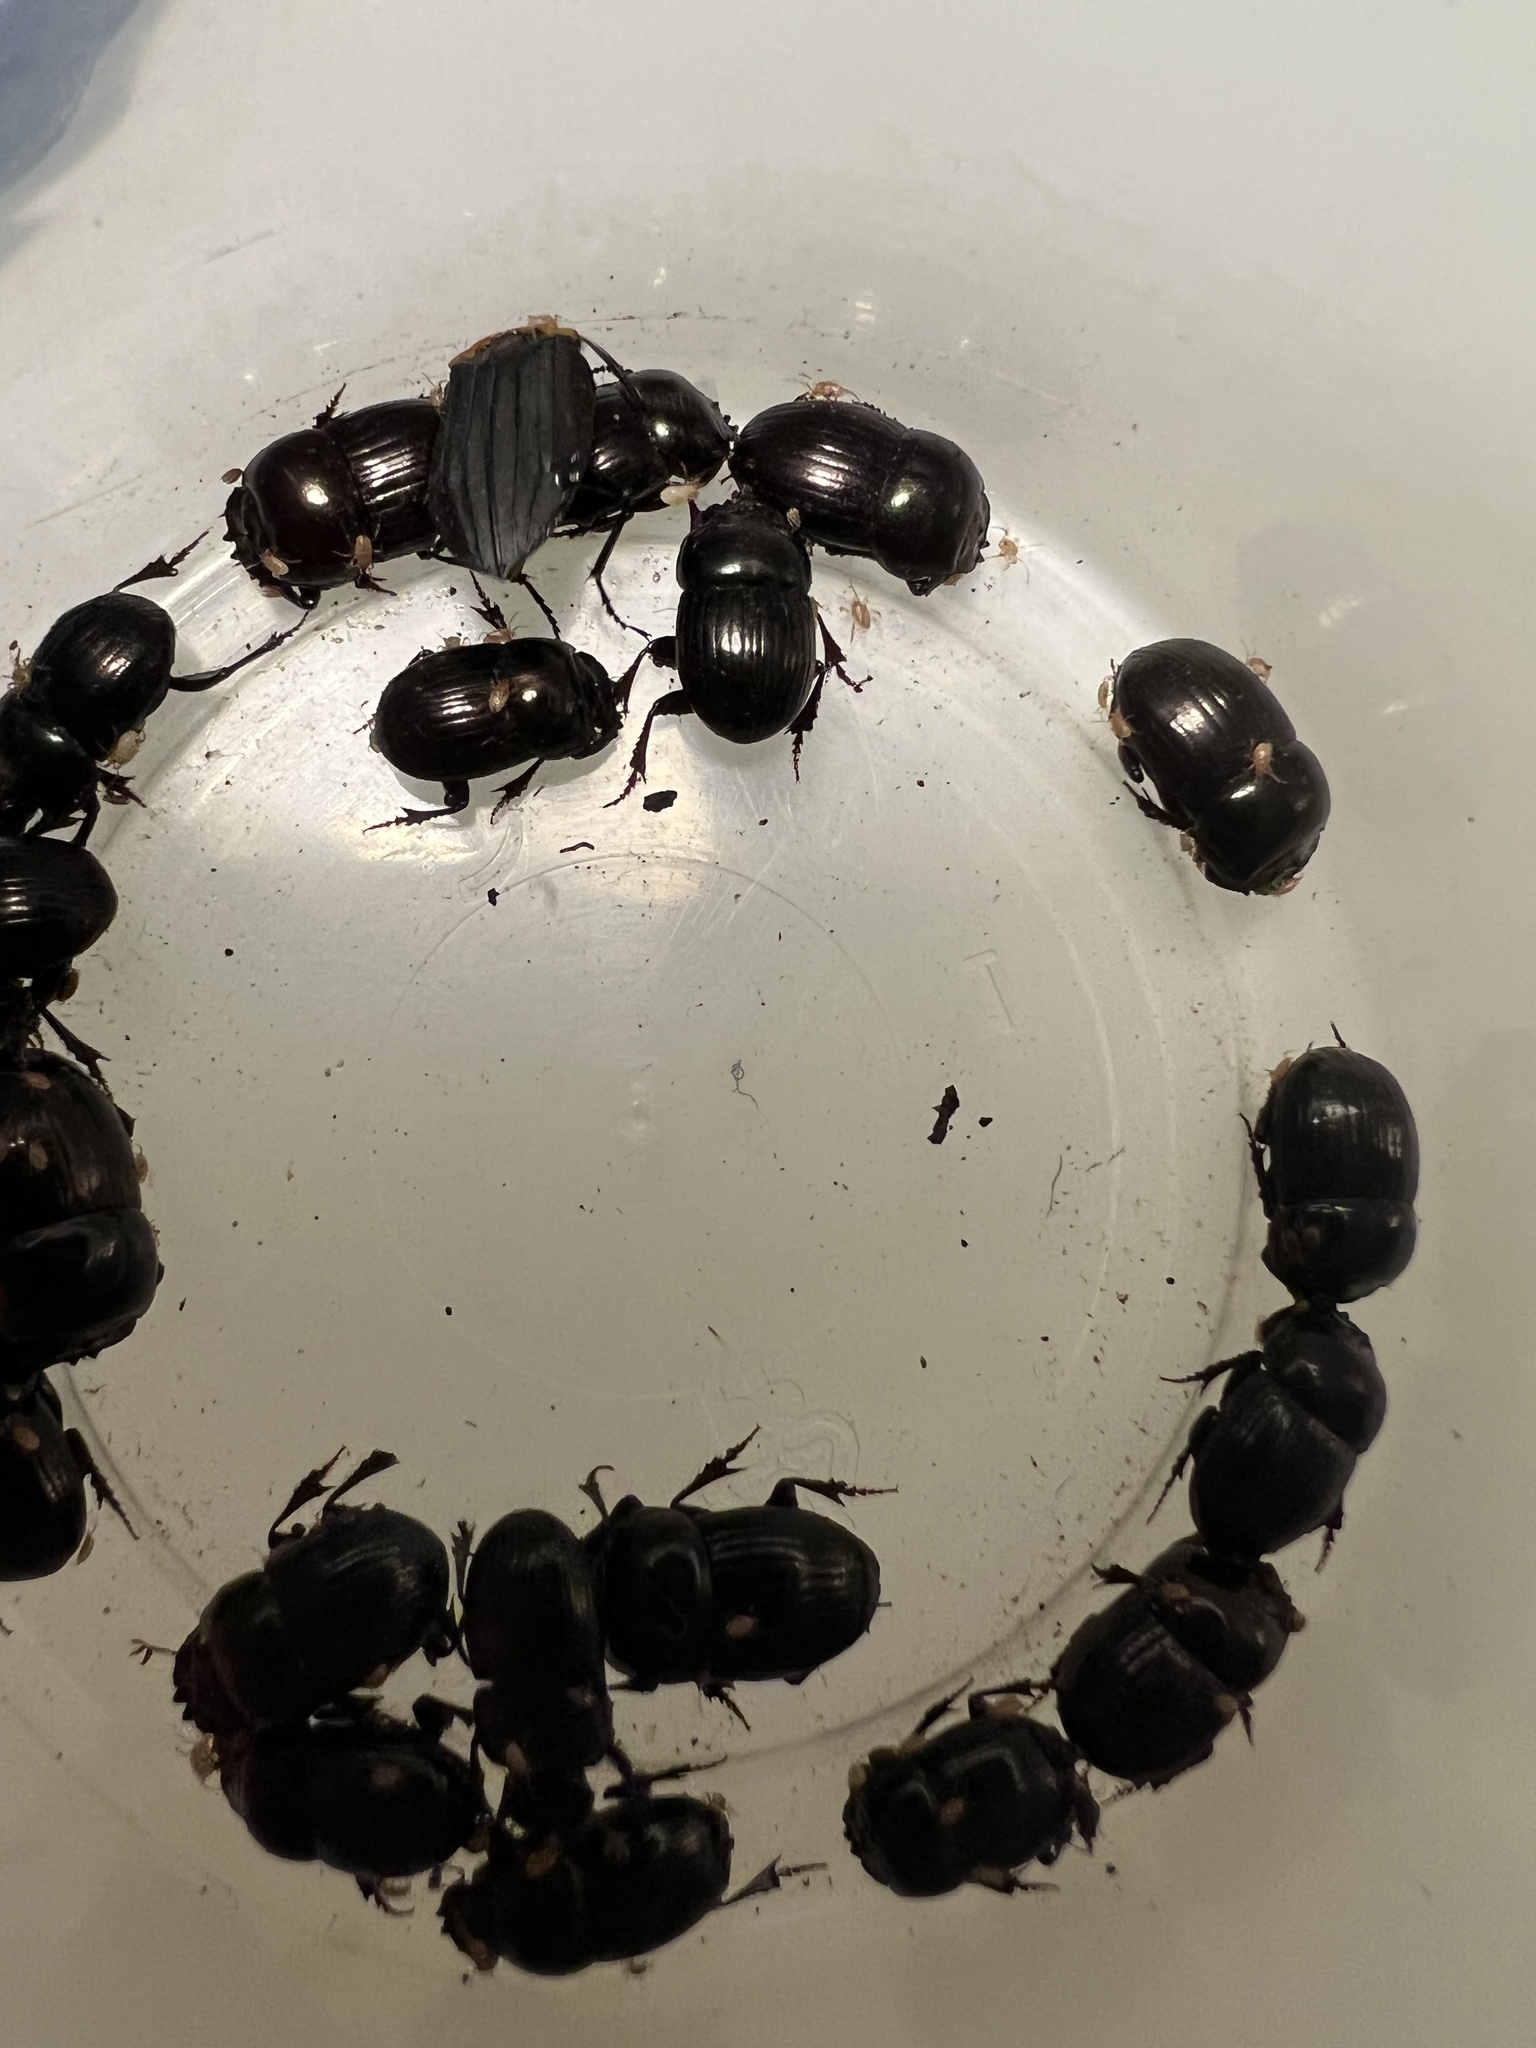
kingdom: Animalia
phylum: Arthropoda
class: Insecta
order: Coleoptera
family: Scarabaeidae
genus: Uroxys
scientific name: Uroxys coarctatus
